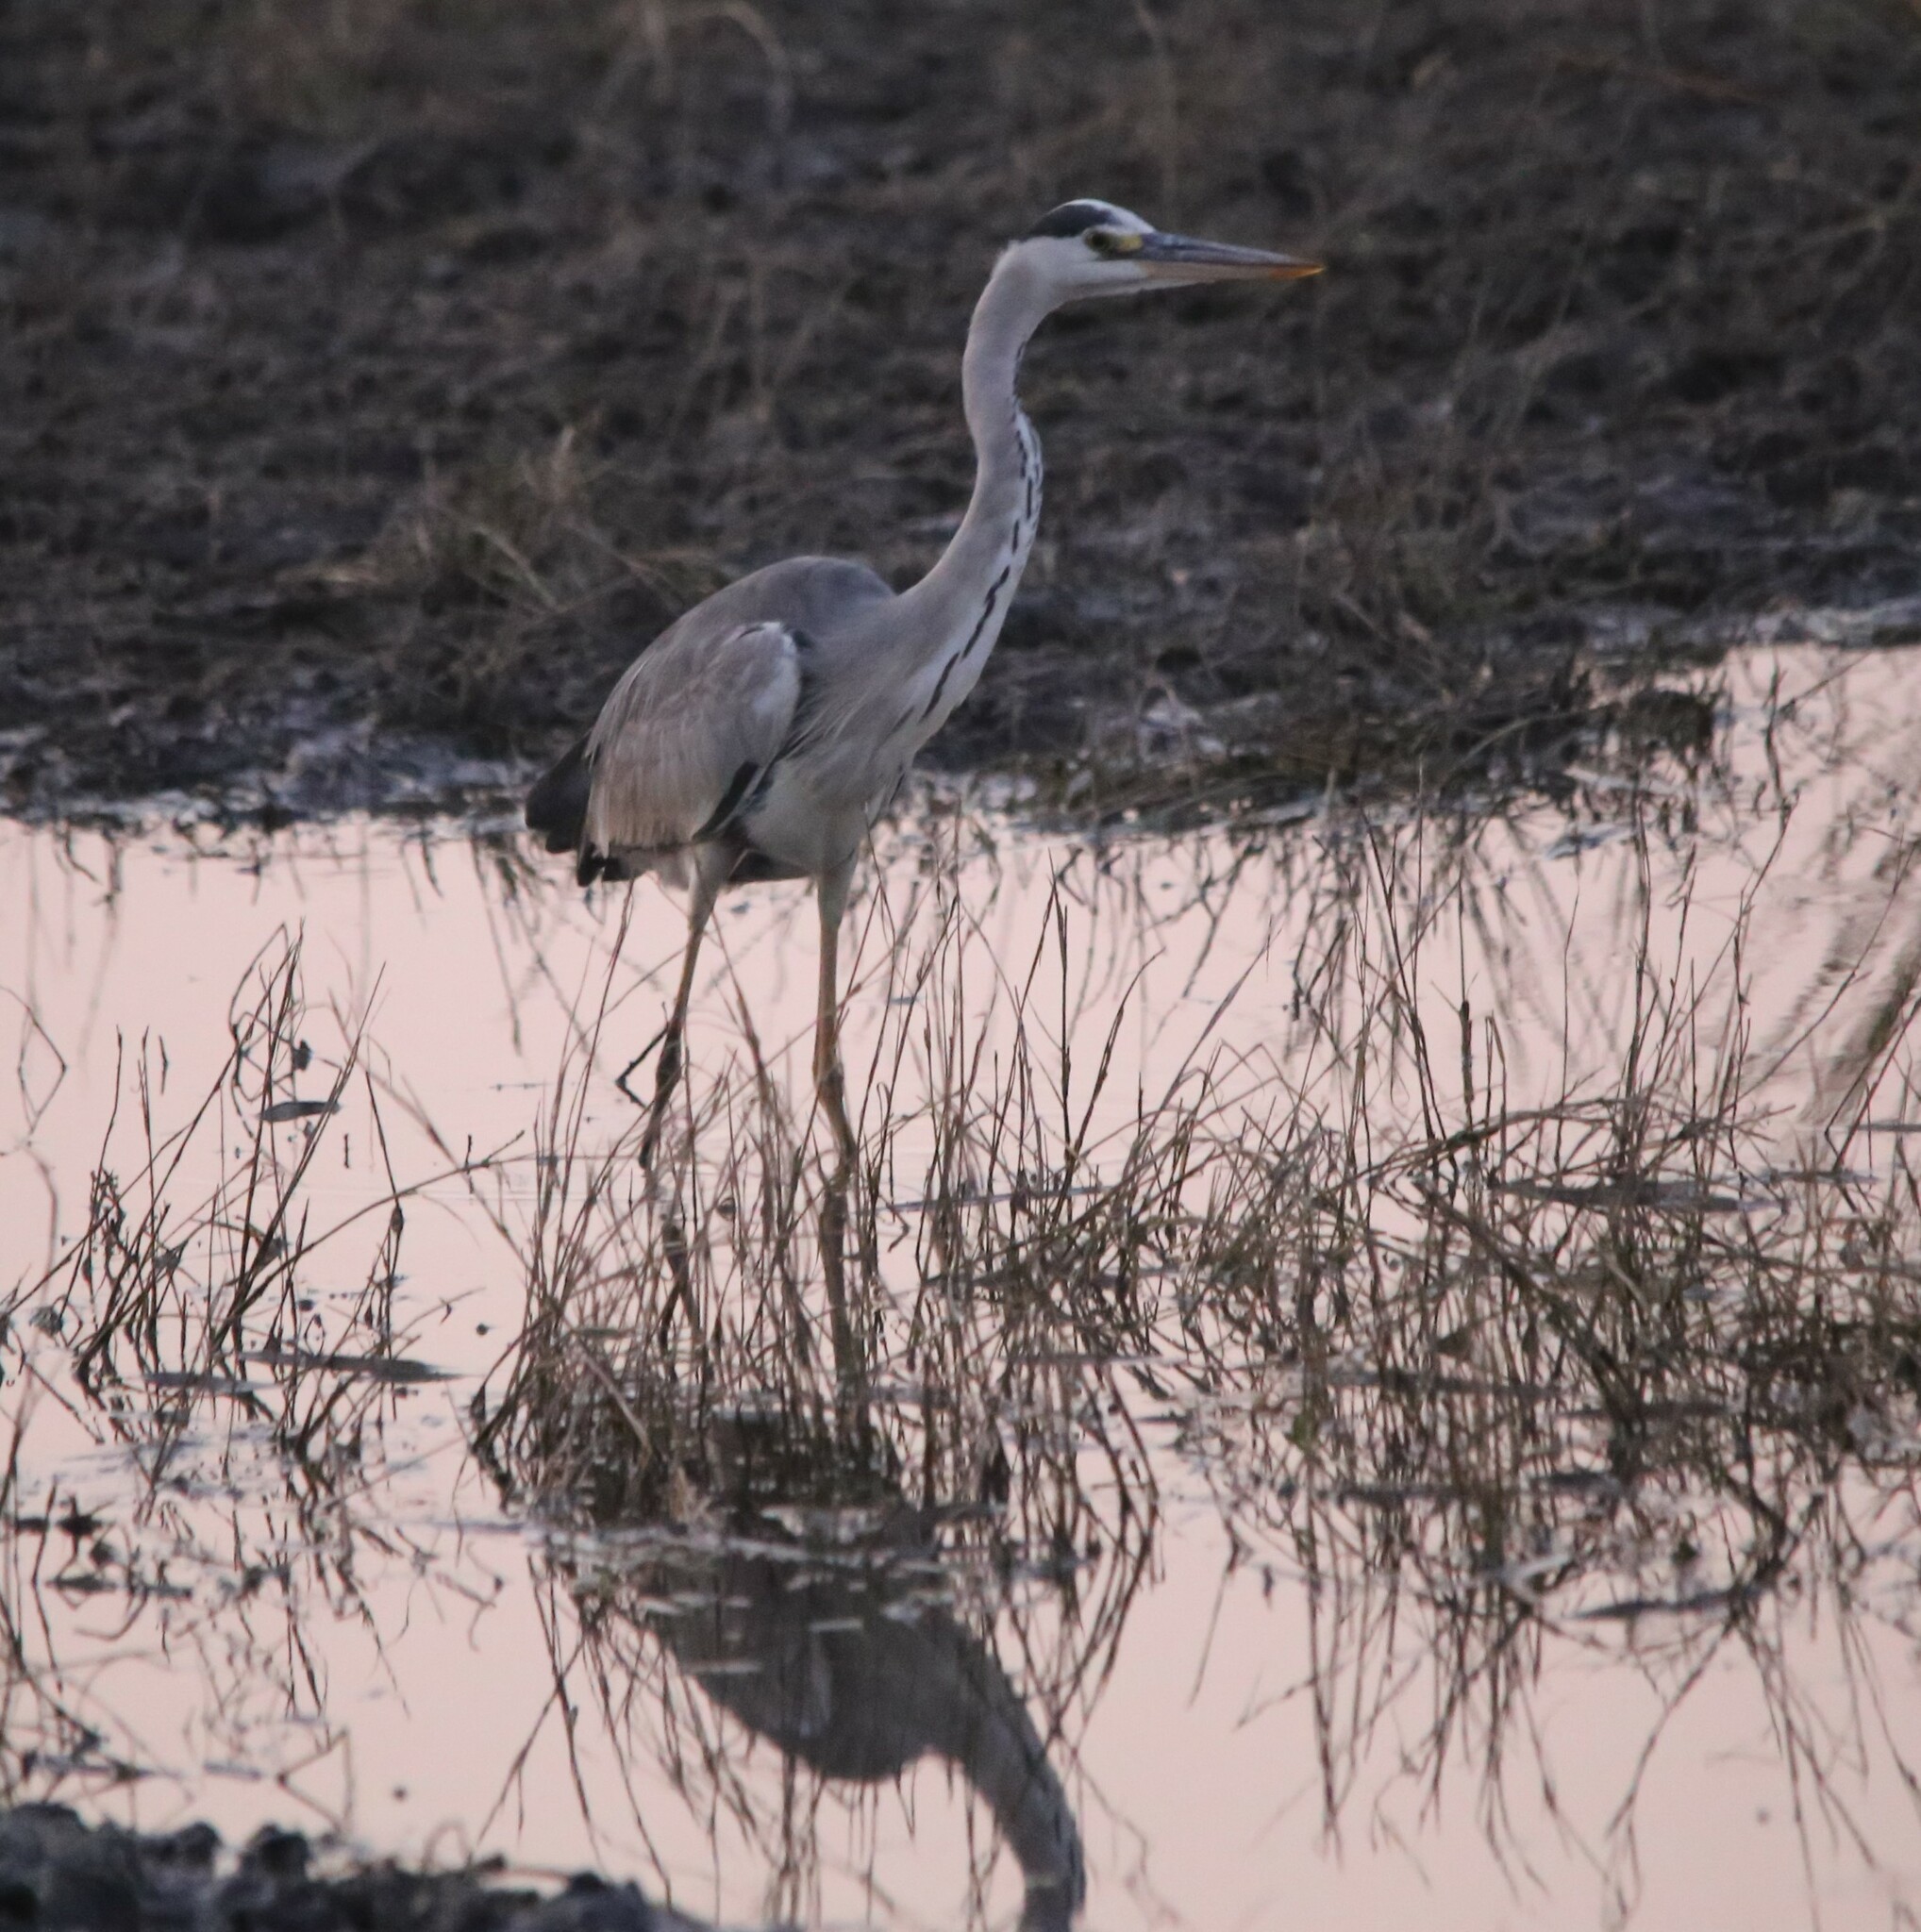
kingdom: Animalia
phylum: Chordata
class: Aves
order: Pelecaniformes
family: Ardeidae
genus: Ardea
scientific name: Ardea cinerea
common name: Grey heron
